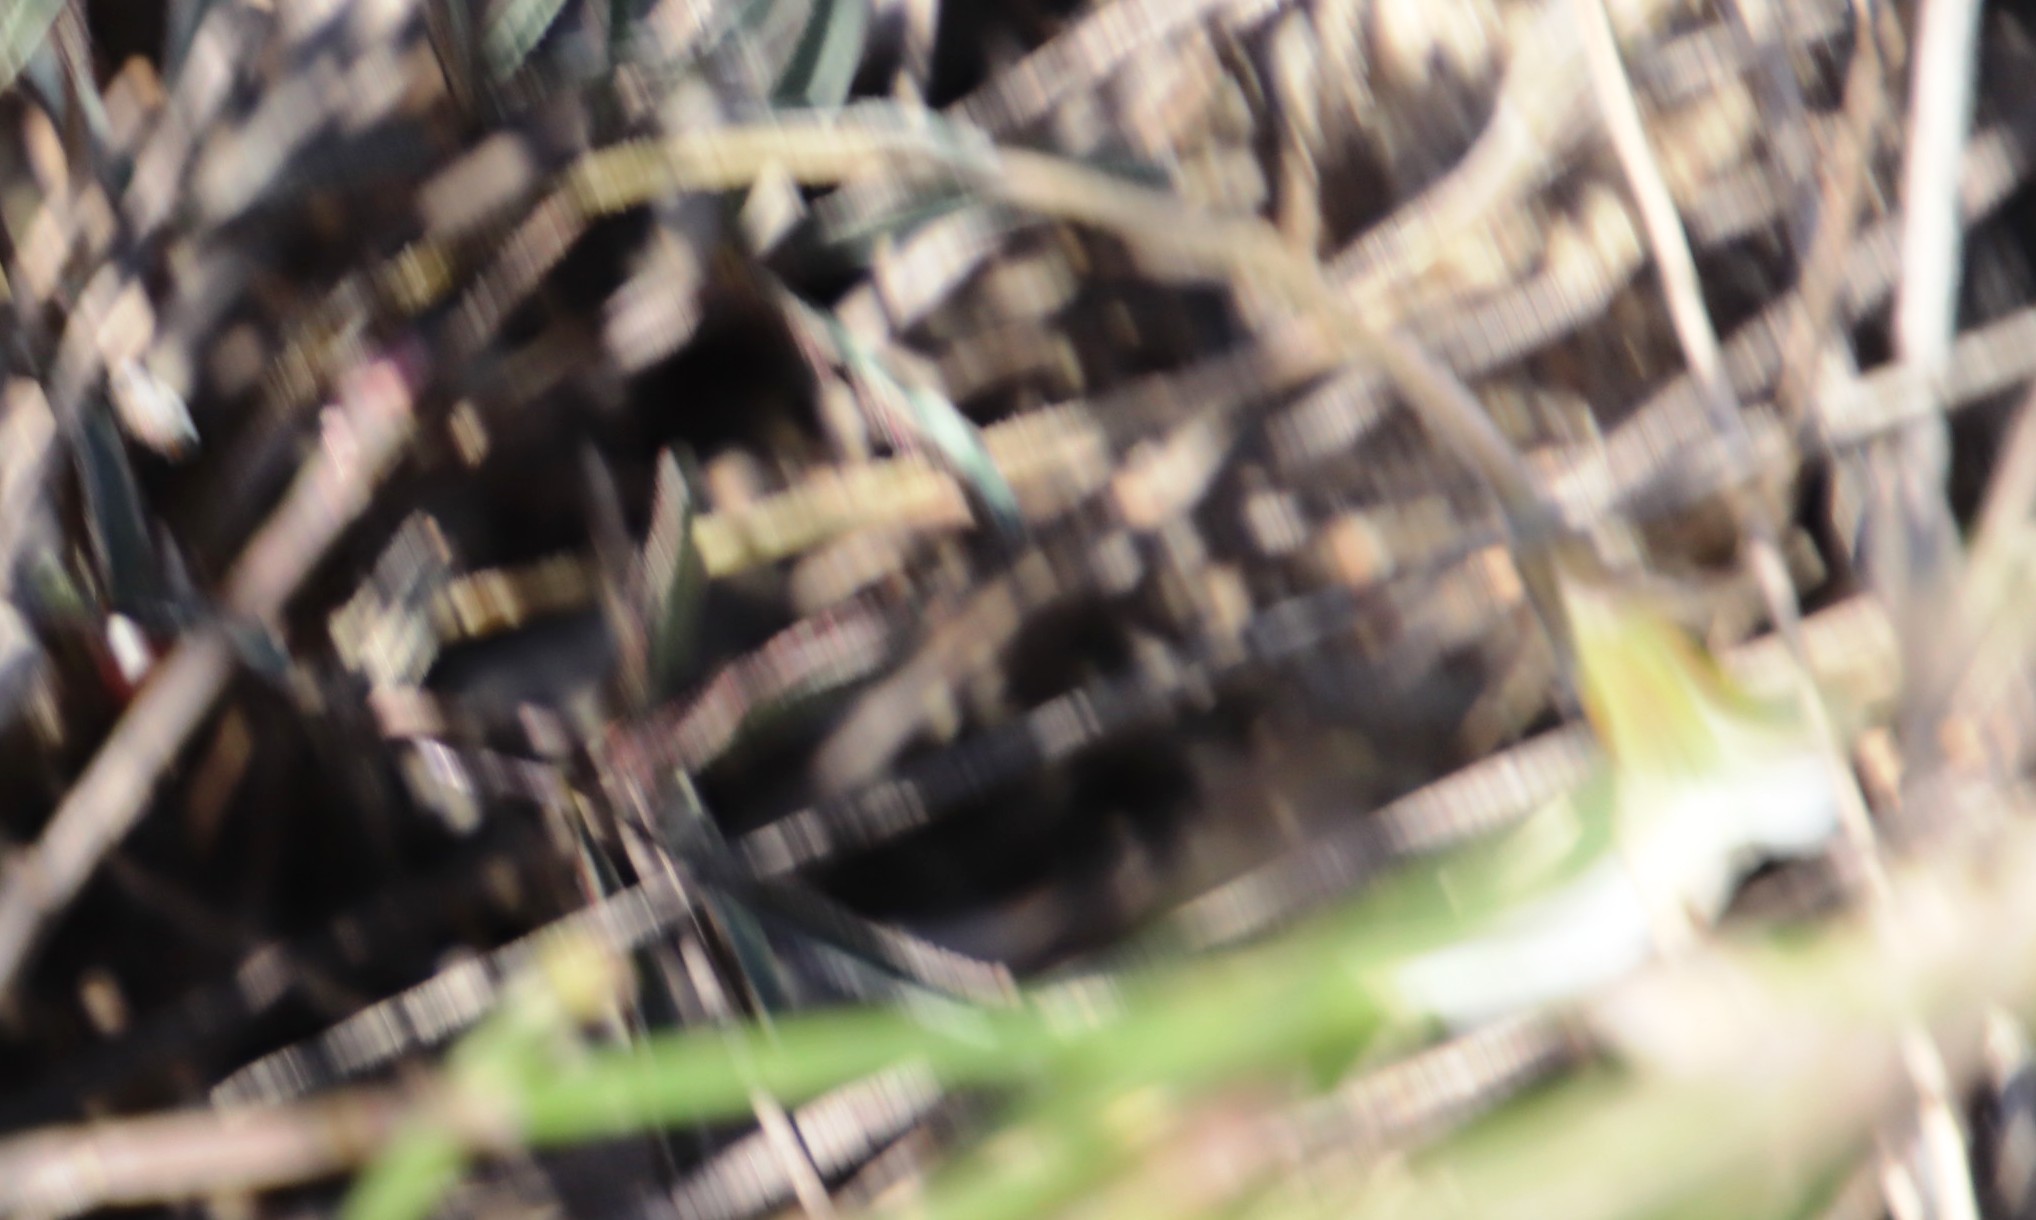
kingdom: Plantae
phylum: Tracheophyta
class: Magnoliopsida
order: Oxalidales
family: Oxalidaceae
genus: Oxalis
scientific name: Oxalis livida
